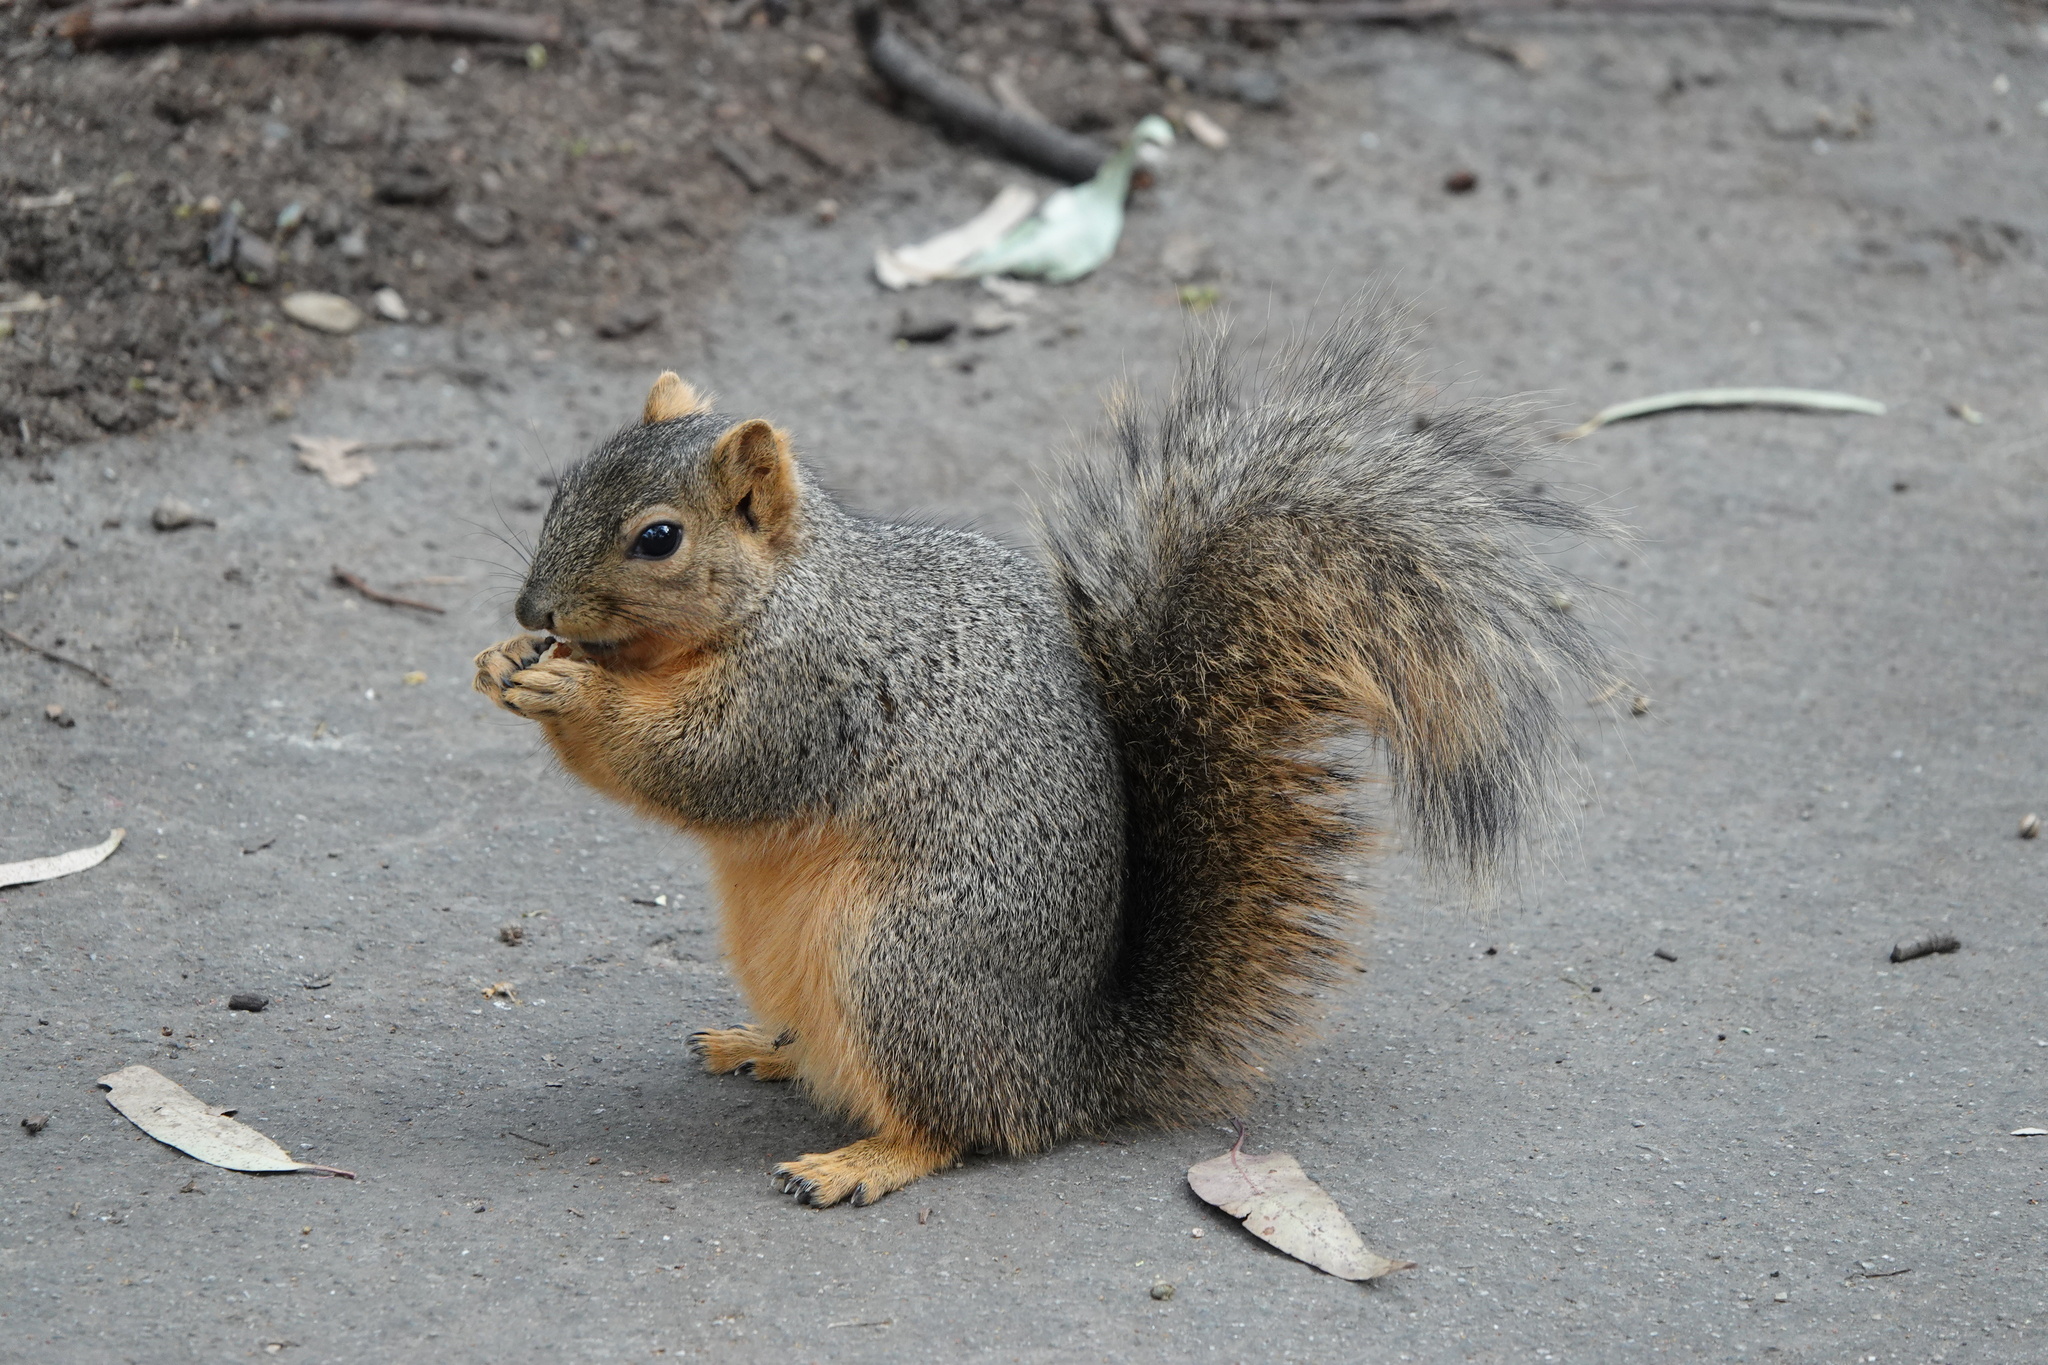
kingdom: Animalia
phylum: Chordata
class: Mammalia
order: Rodentia
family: Sciuridae
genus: Sciurus
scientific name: Sciurus niger
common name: Fox squirrel
